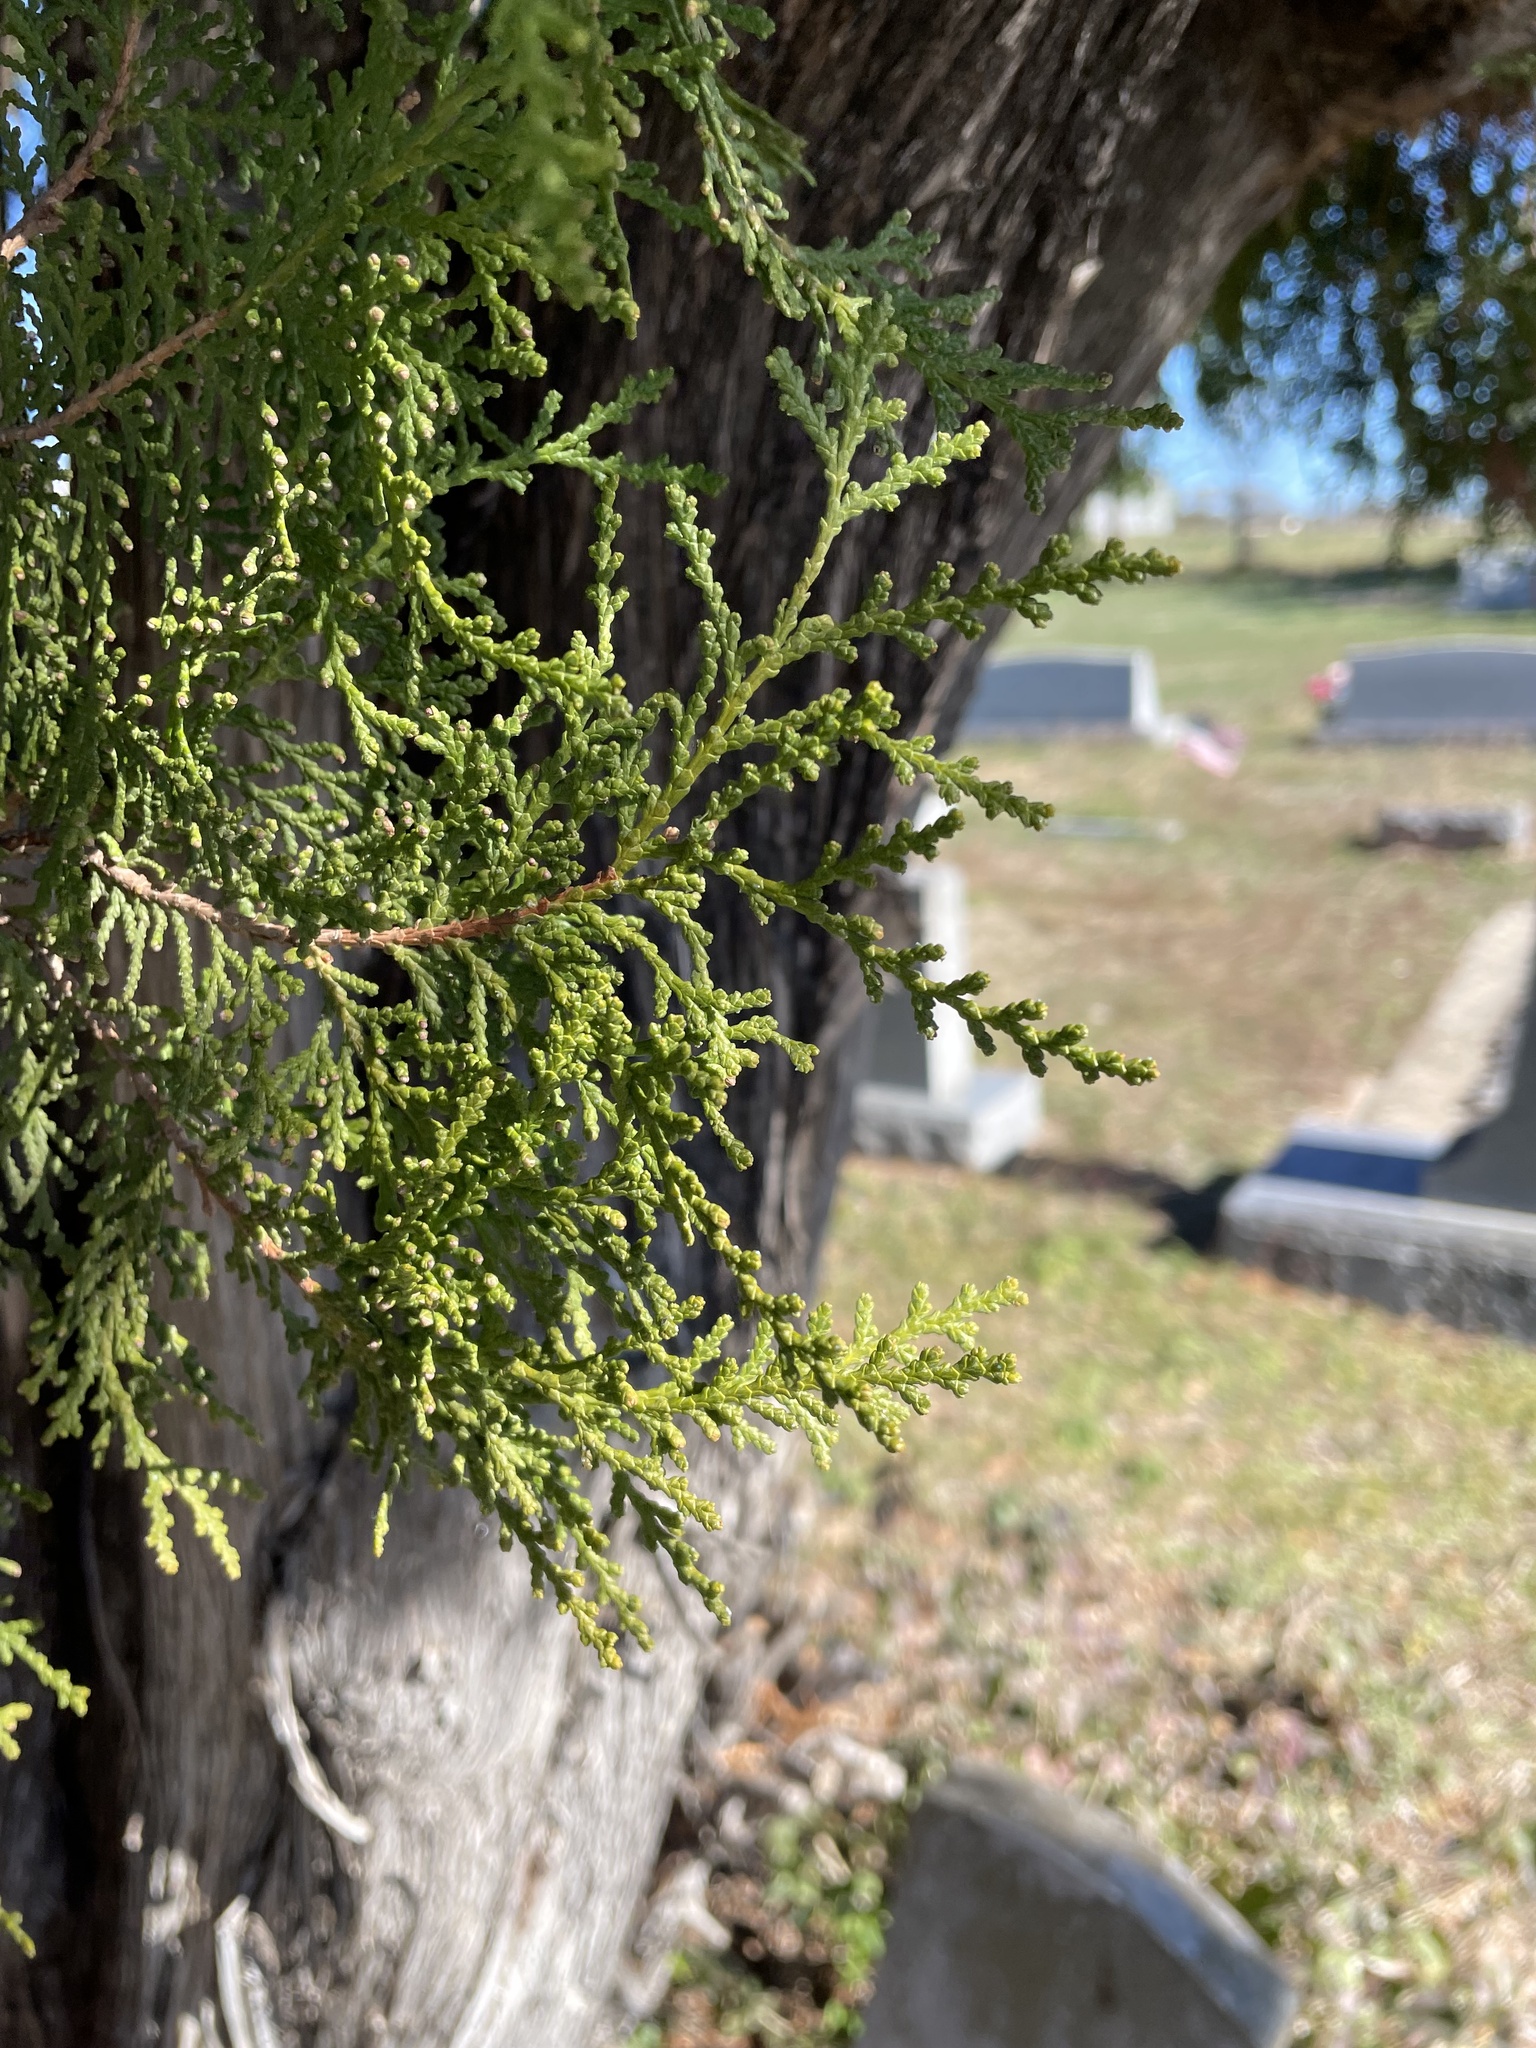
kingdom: Plantae
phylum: Tracheophyta
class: Pinopsida
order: Pinales
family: Cupressaceae
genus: Platycladus
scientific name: Platycladus orientalis
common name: Chinese thuja
